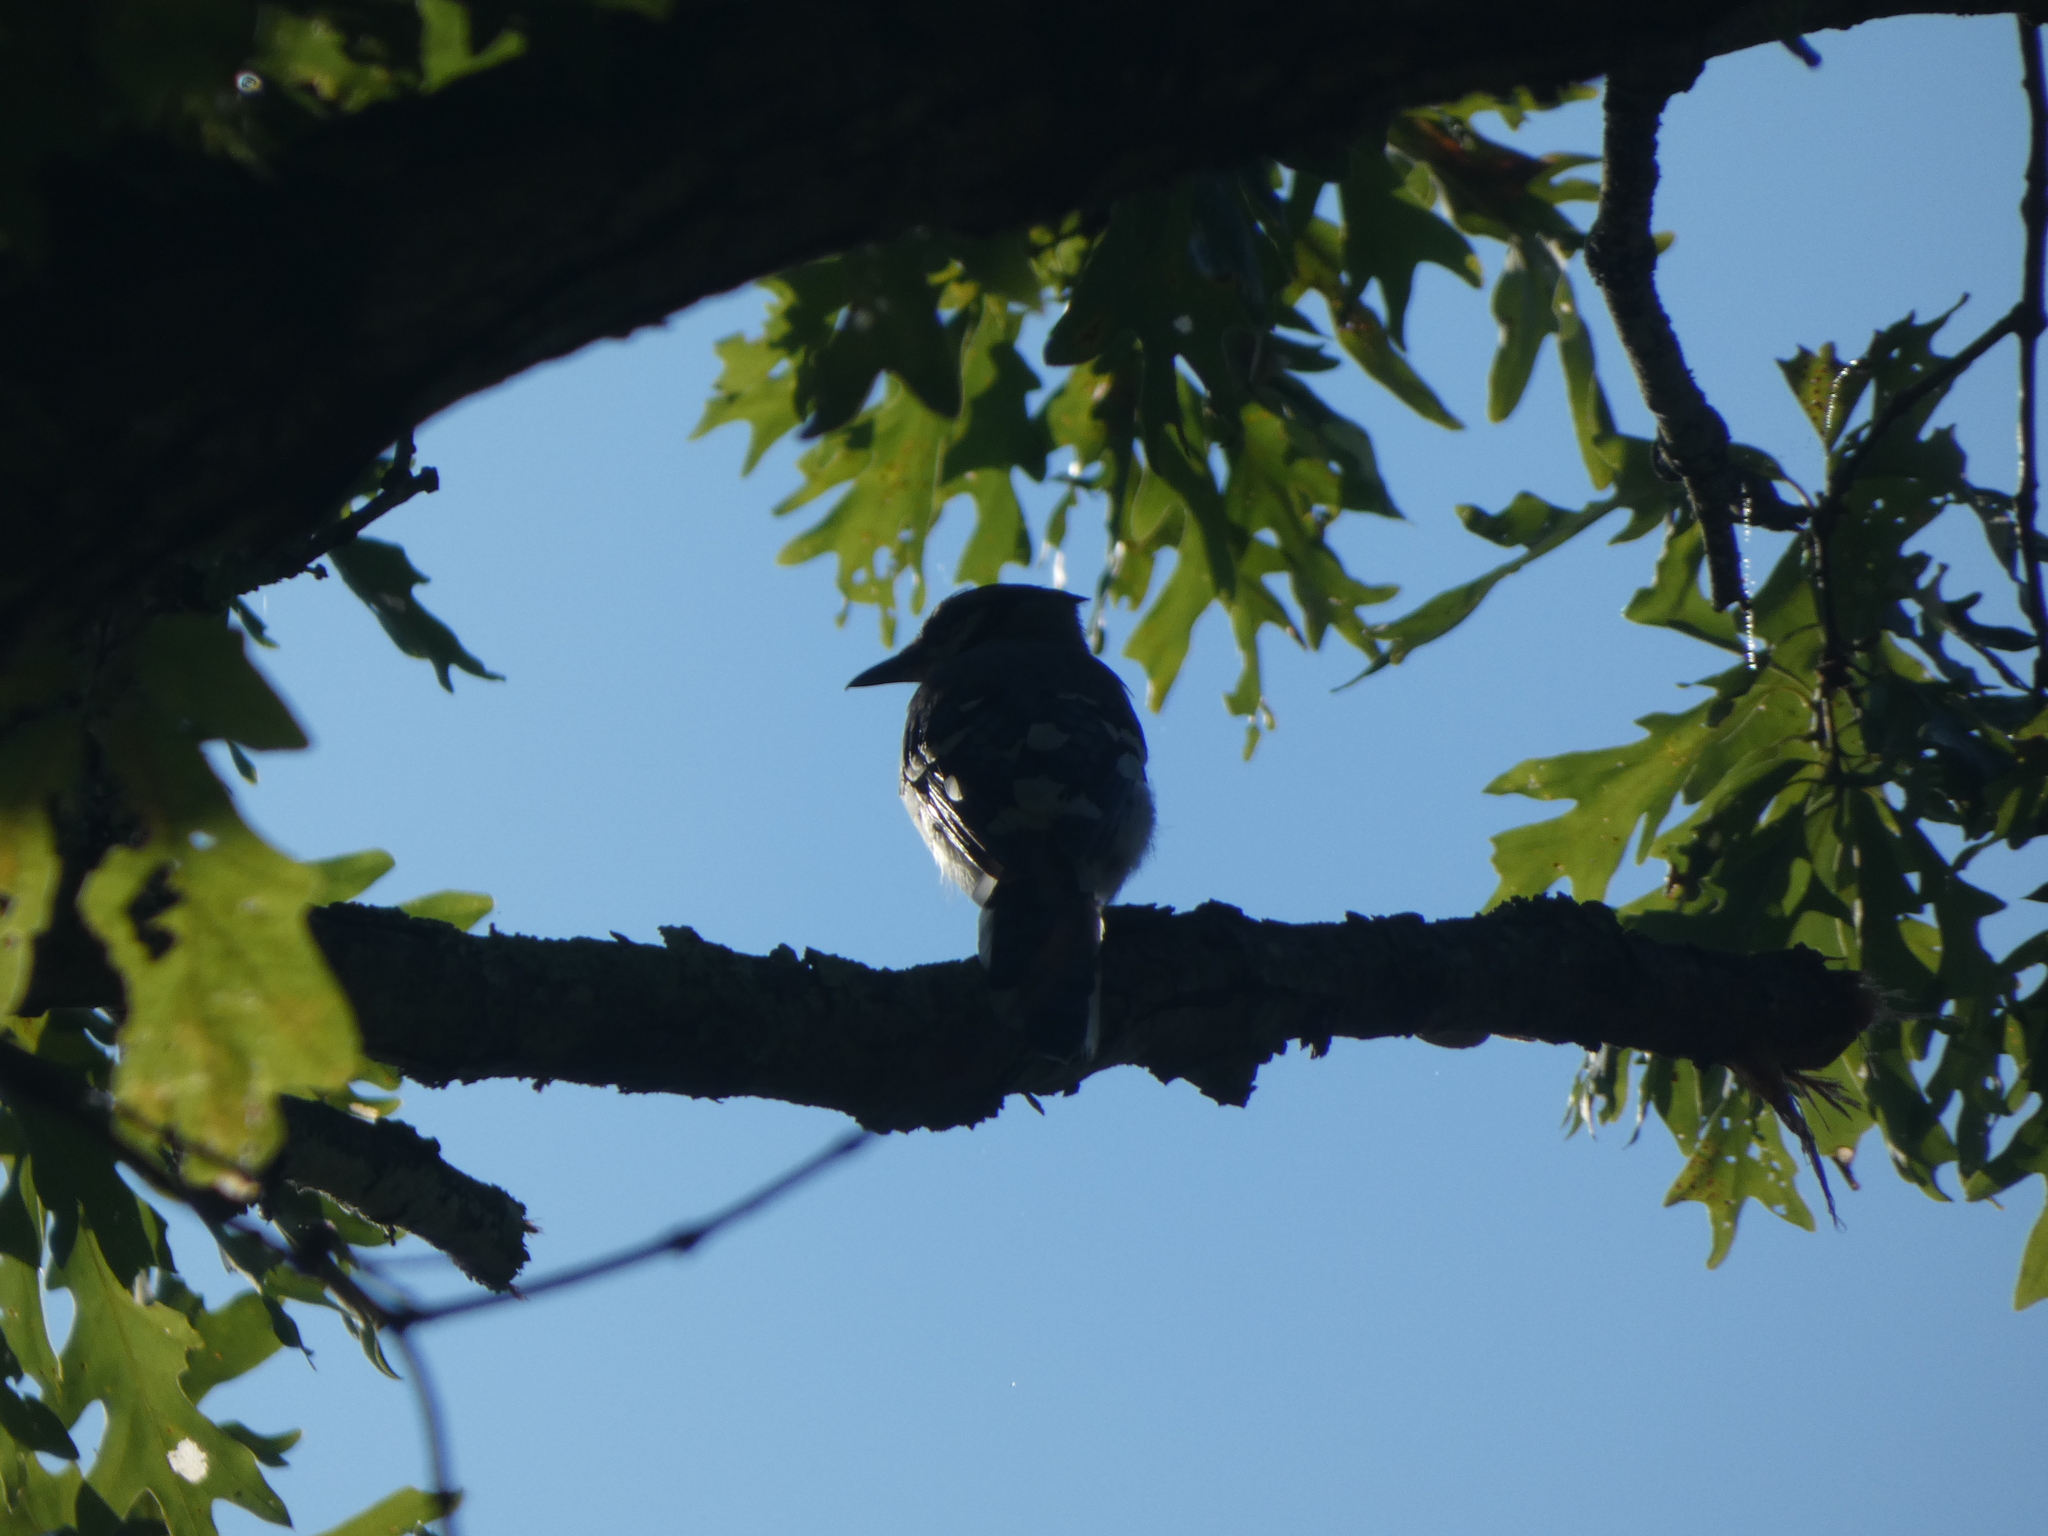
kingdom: Animalia
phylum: Chordata
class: Aves
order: Passeriformes
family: Corvidae
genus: Cyanocitta
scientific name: Cyanocitta cristata
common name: Blue jay
